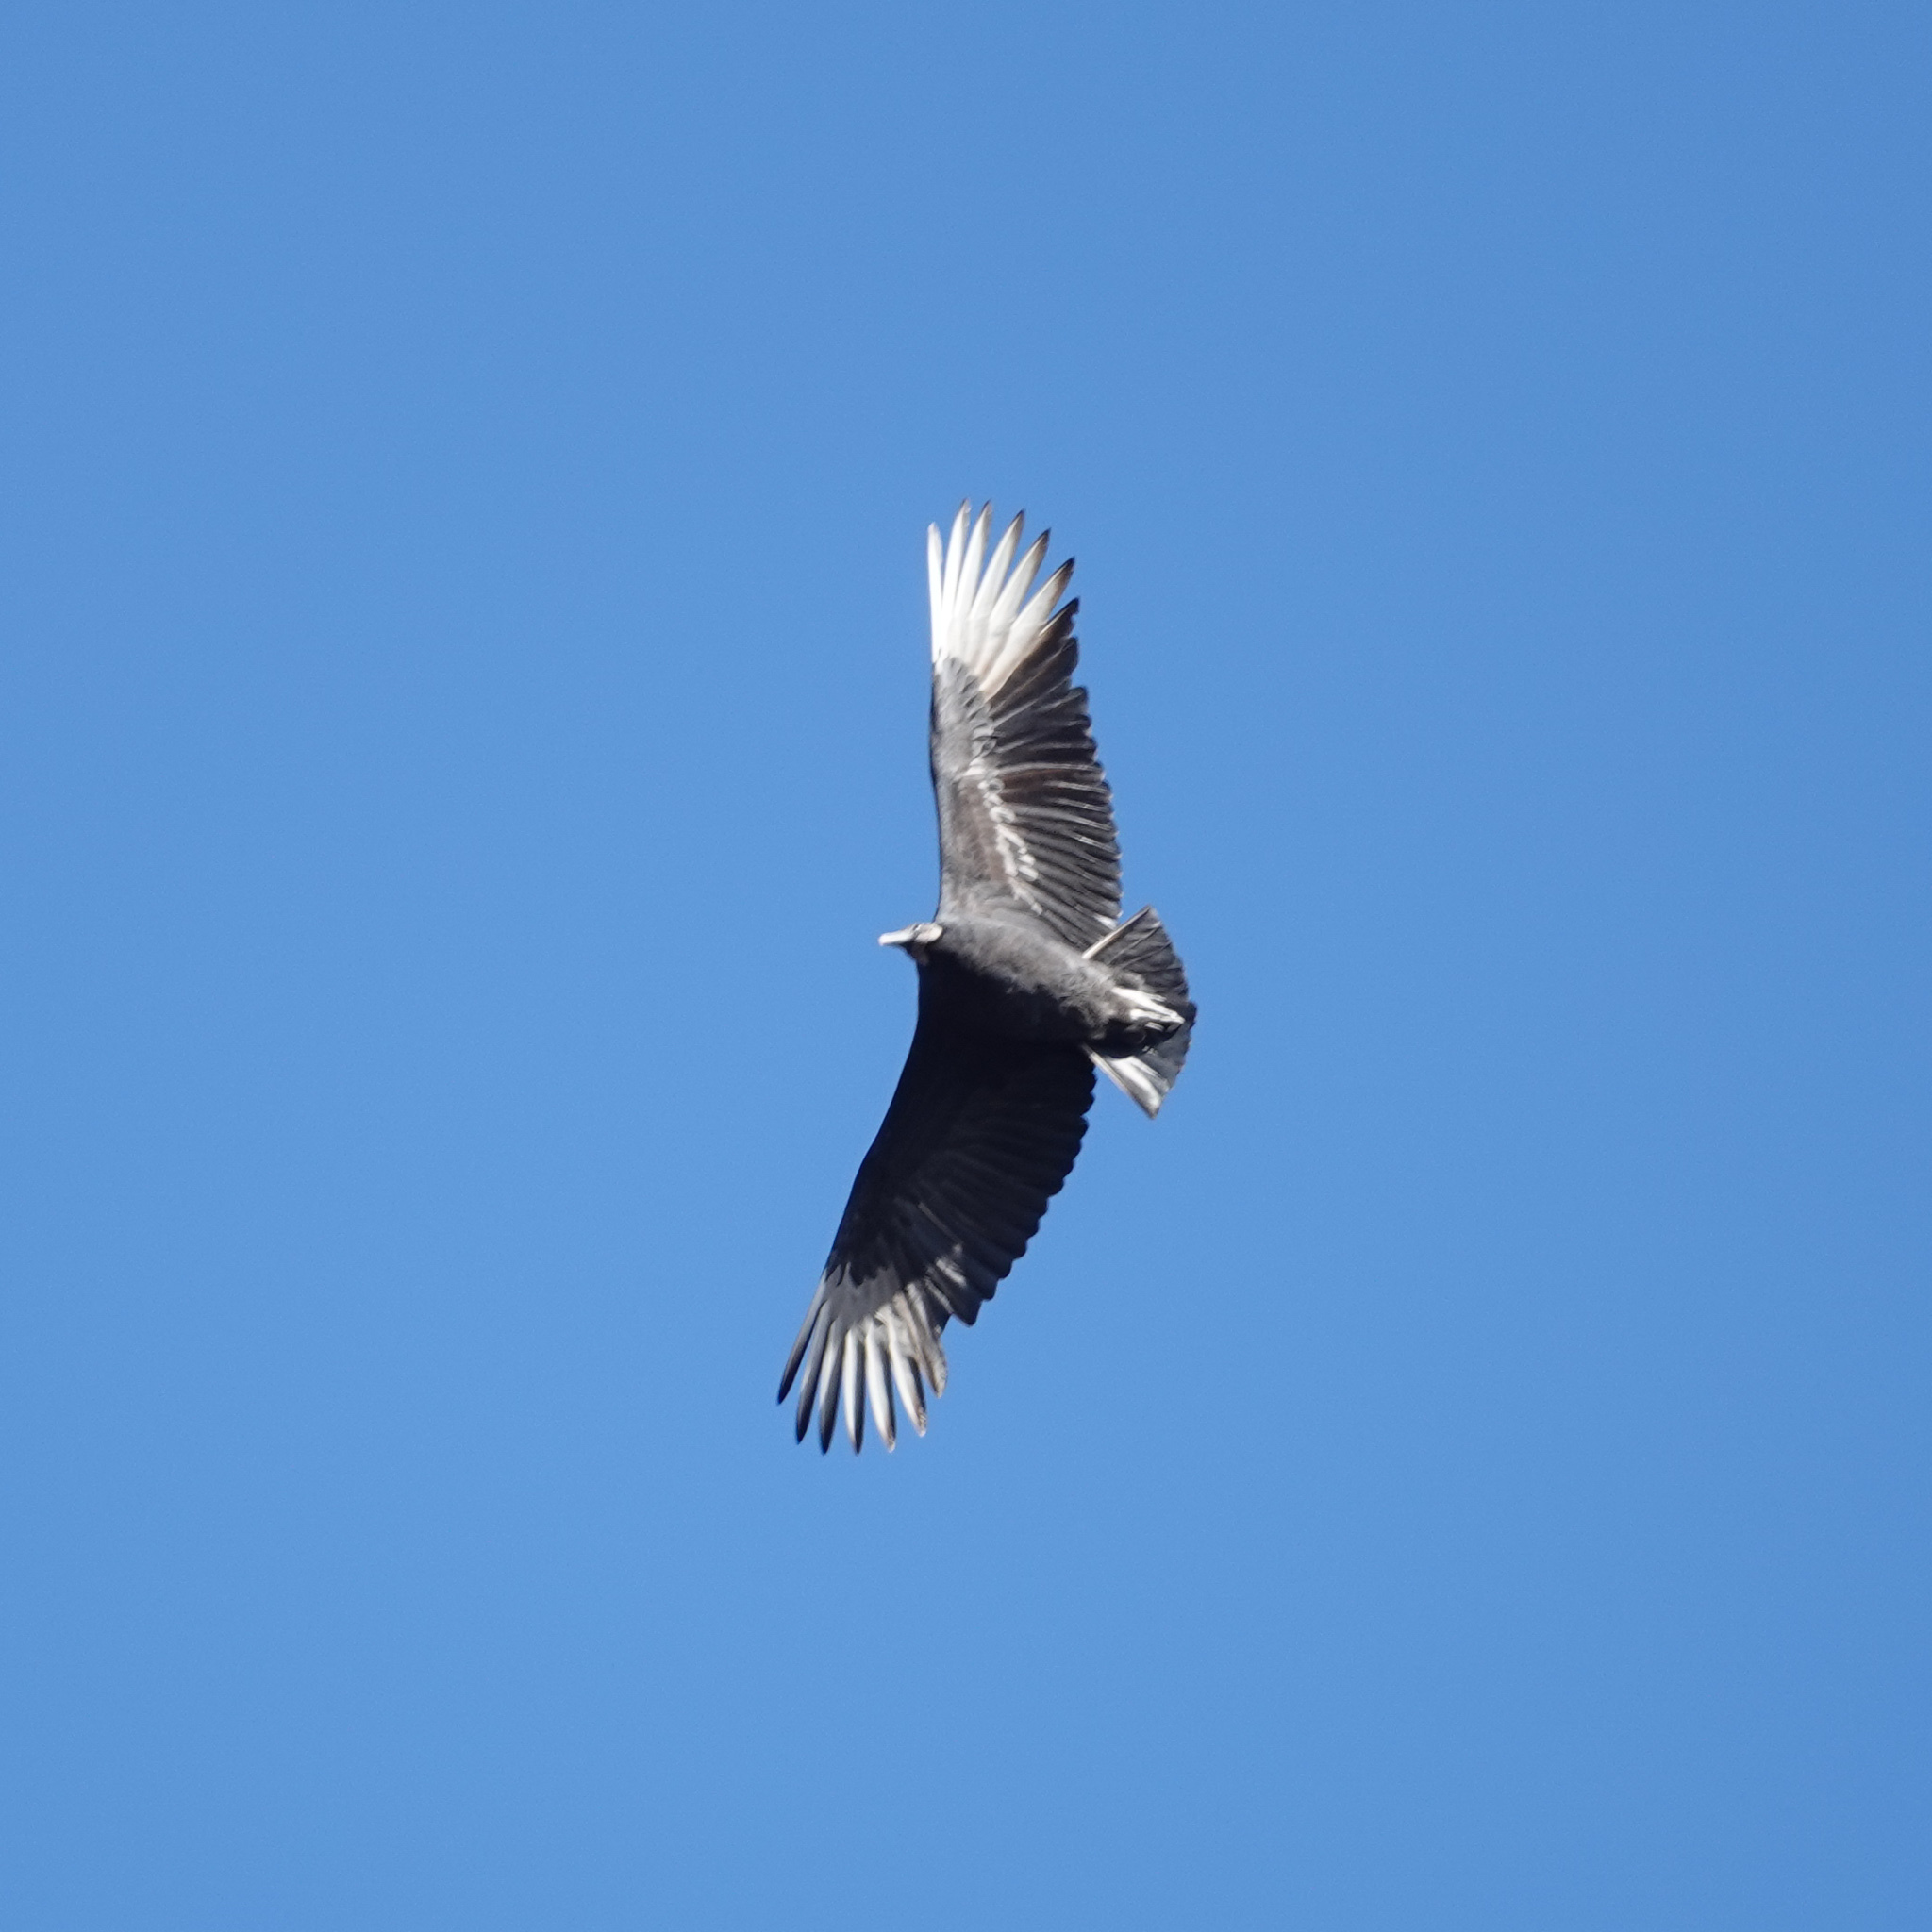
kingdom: Animalia
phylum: Chordata
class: Aves
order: Accipitriformes
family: Cathartidae
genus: Coragyps
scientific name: Coragyps atratus
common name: Black vulture
